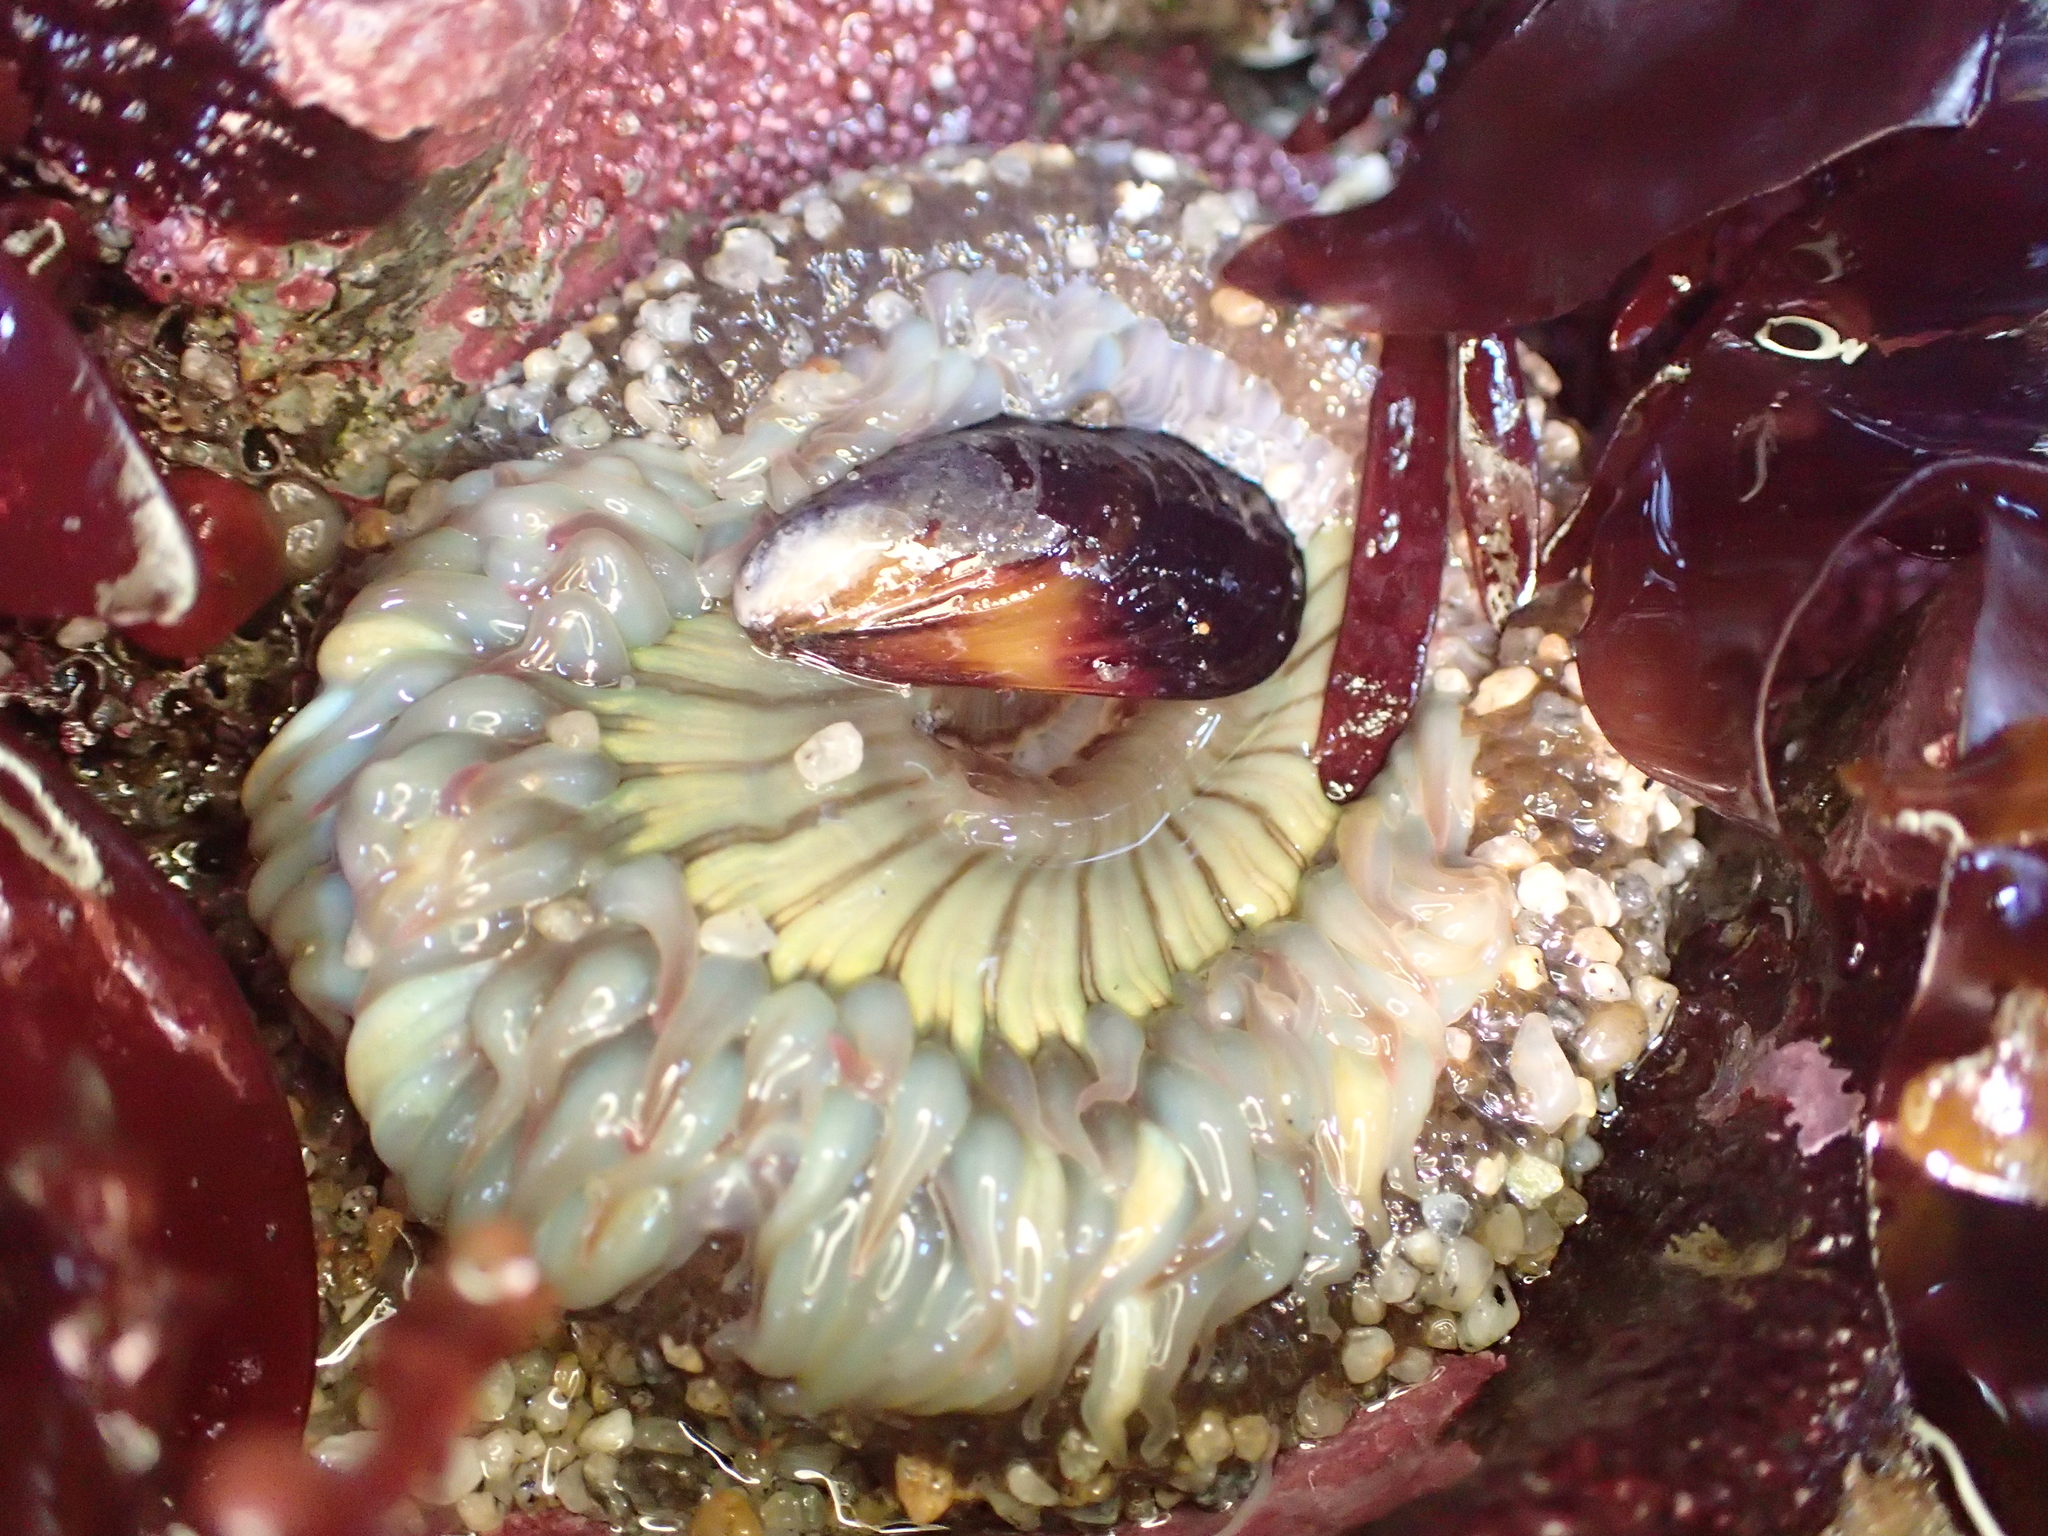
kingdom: Animalia
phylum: Cnidaria
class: Anthozoa
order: Actiniaria
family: Actiniidae
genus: Anthopleura
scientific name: Anthopleura sola
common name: Sun anemone
